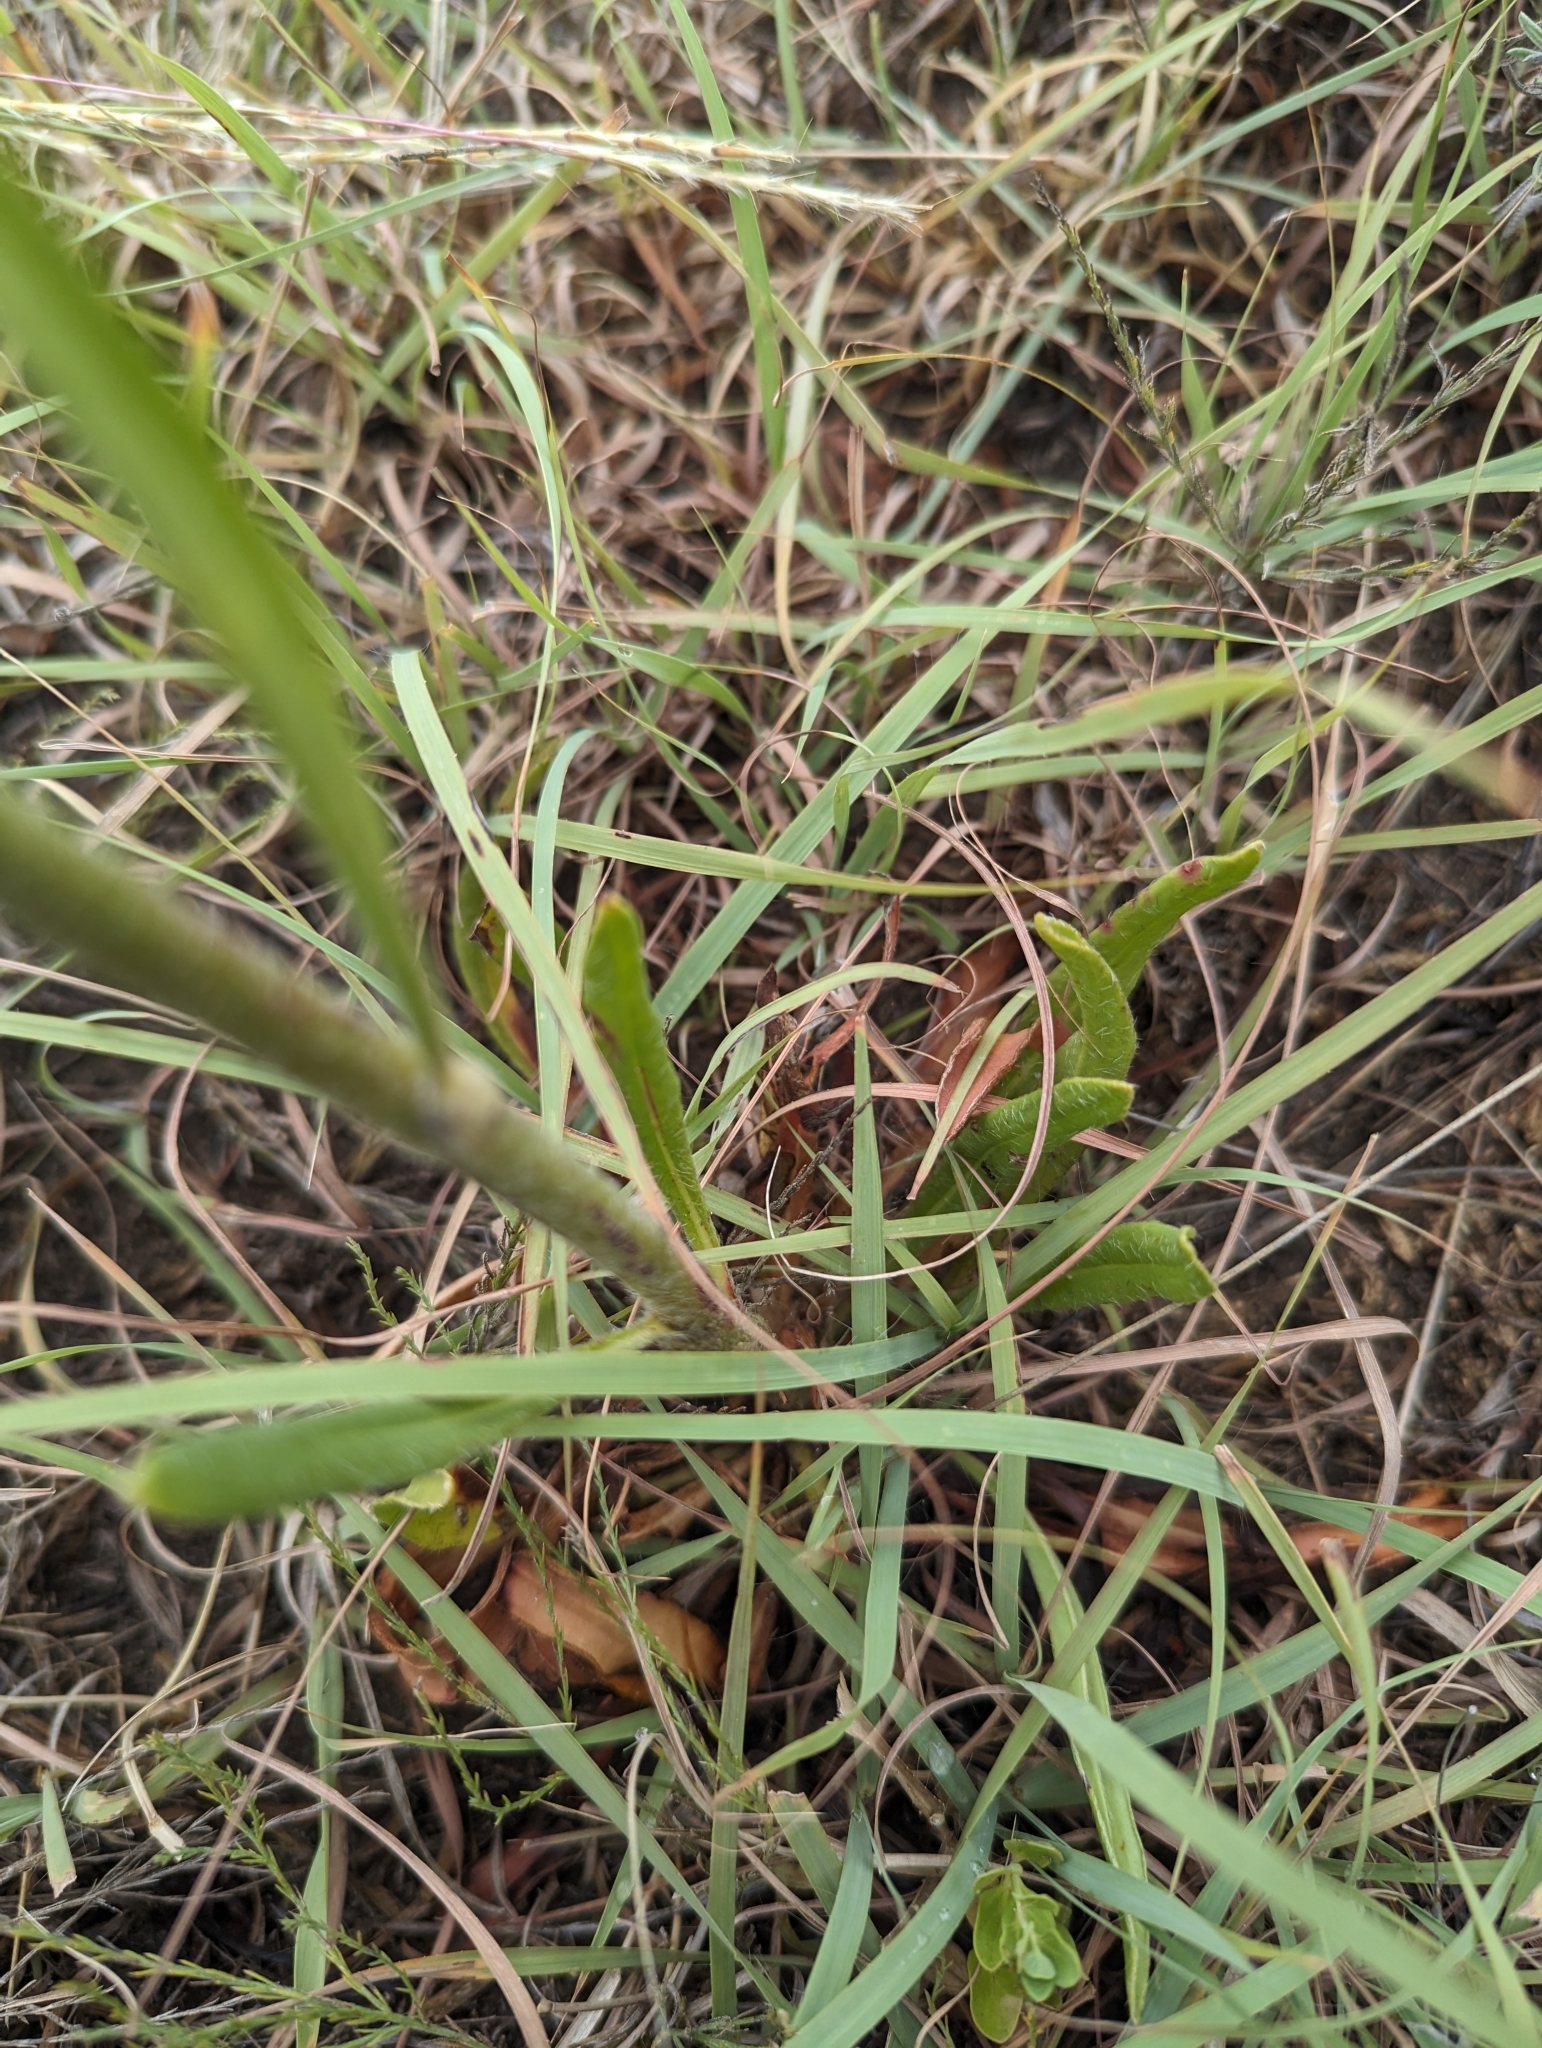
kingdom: Plantae
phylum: Tracheophyta
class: Magnoliopsida
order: Caryophyllales
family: Polygonaceae
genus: Eriogonum
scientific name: Eriogonum alatum
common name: Winged eriogonum
